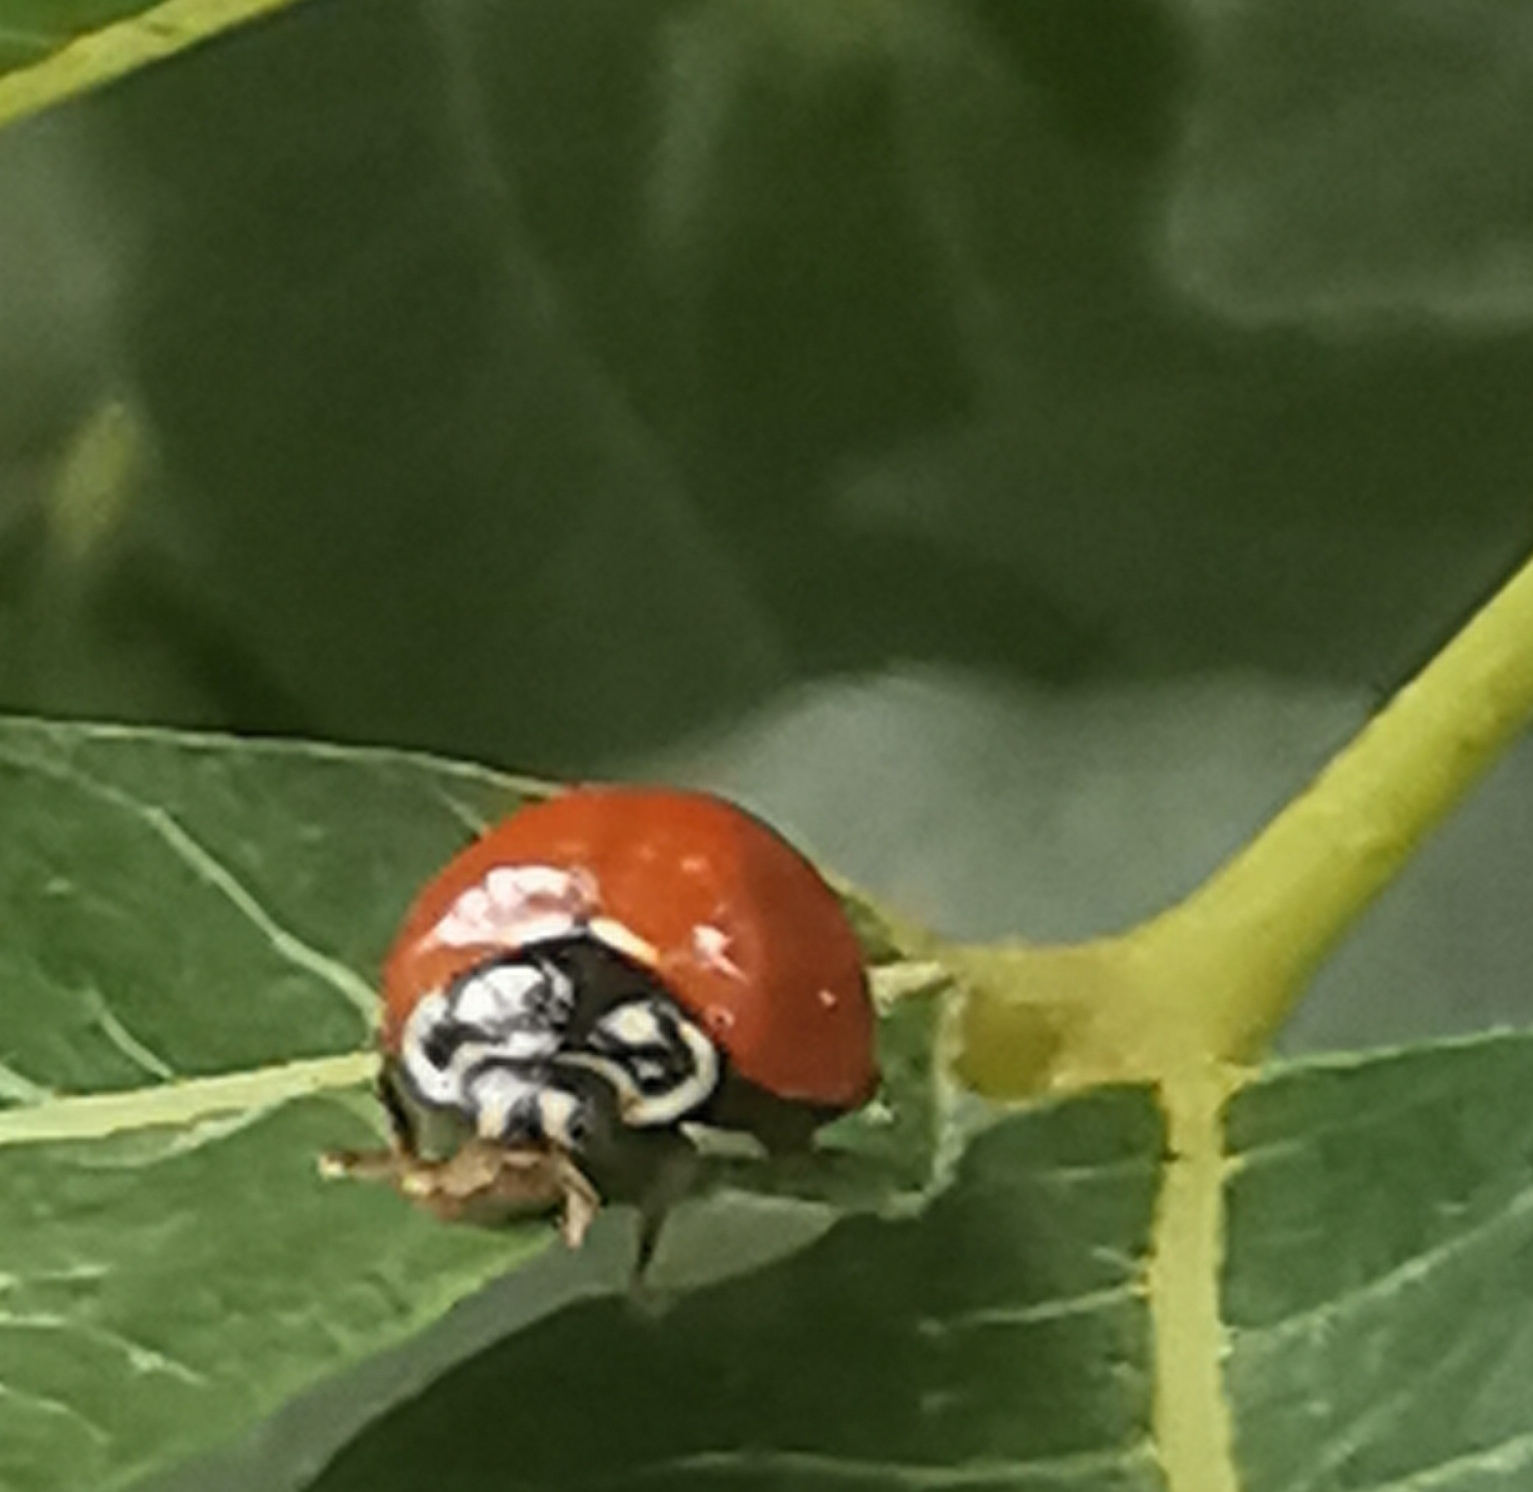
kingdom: Animalia
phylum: Arthropoda
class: Insecta
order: Coleoptera
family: Coccinellidae
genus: Cycloneda
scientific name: Cycloneda sanguinea
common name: Ladybird beetle
